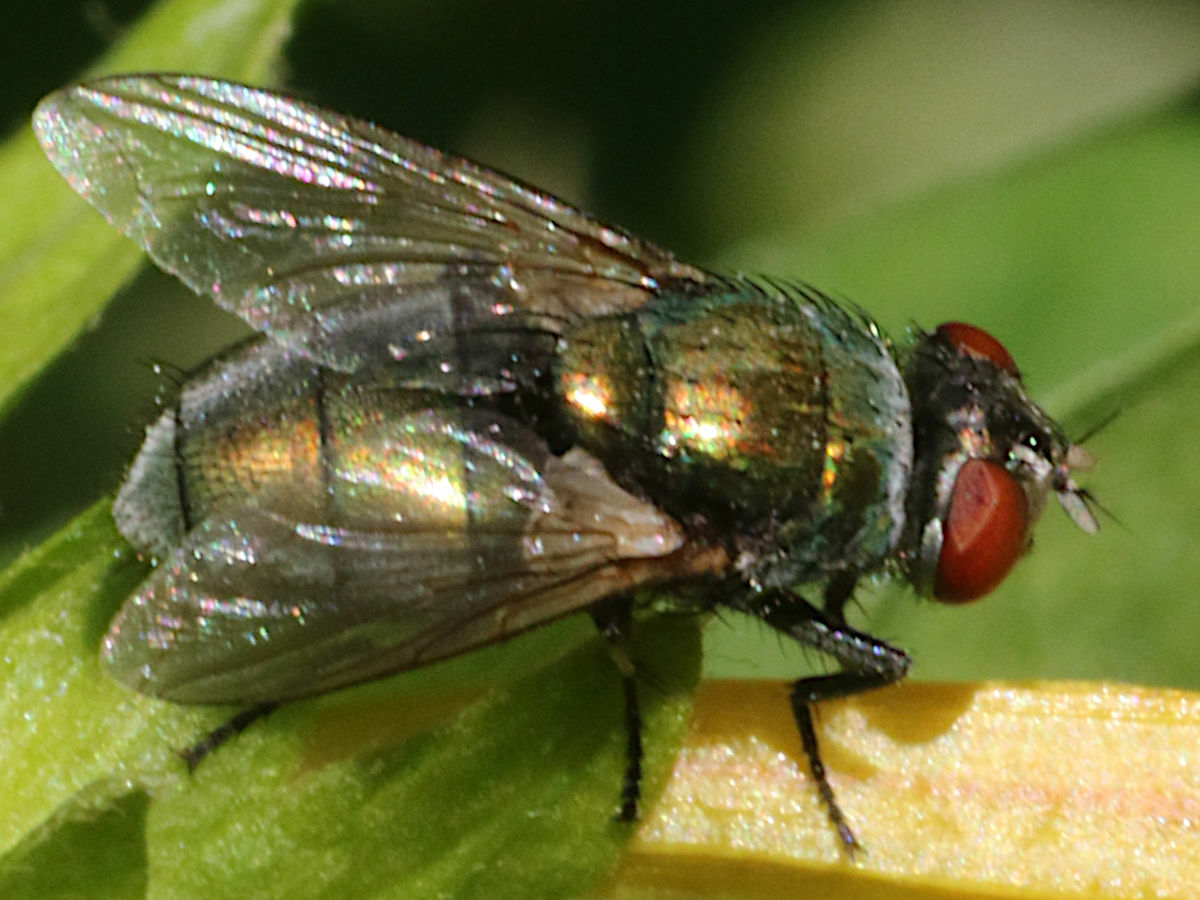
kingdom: Animalia
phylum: Arthropoda
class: Insecta
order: Diptera
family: Calliphoridae
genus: Lucilia
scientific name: Lucilia sericata
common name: Blow fly
